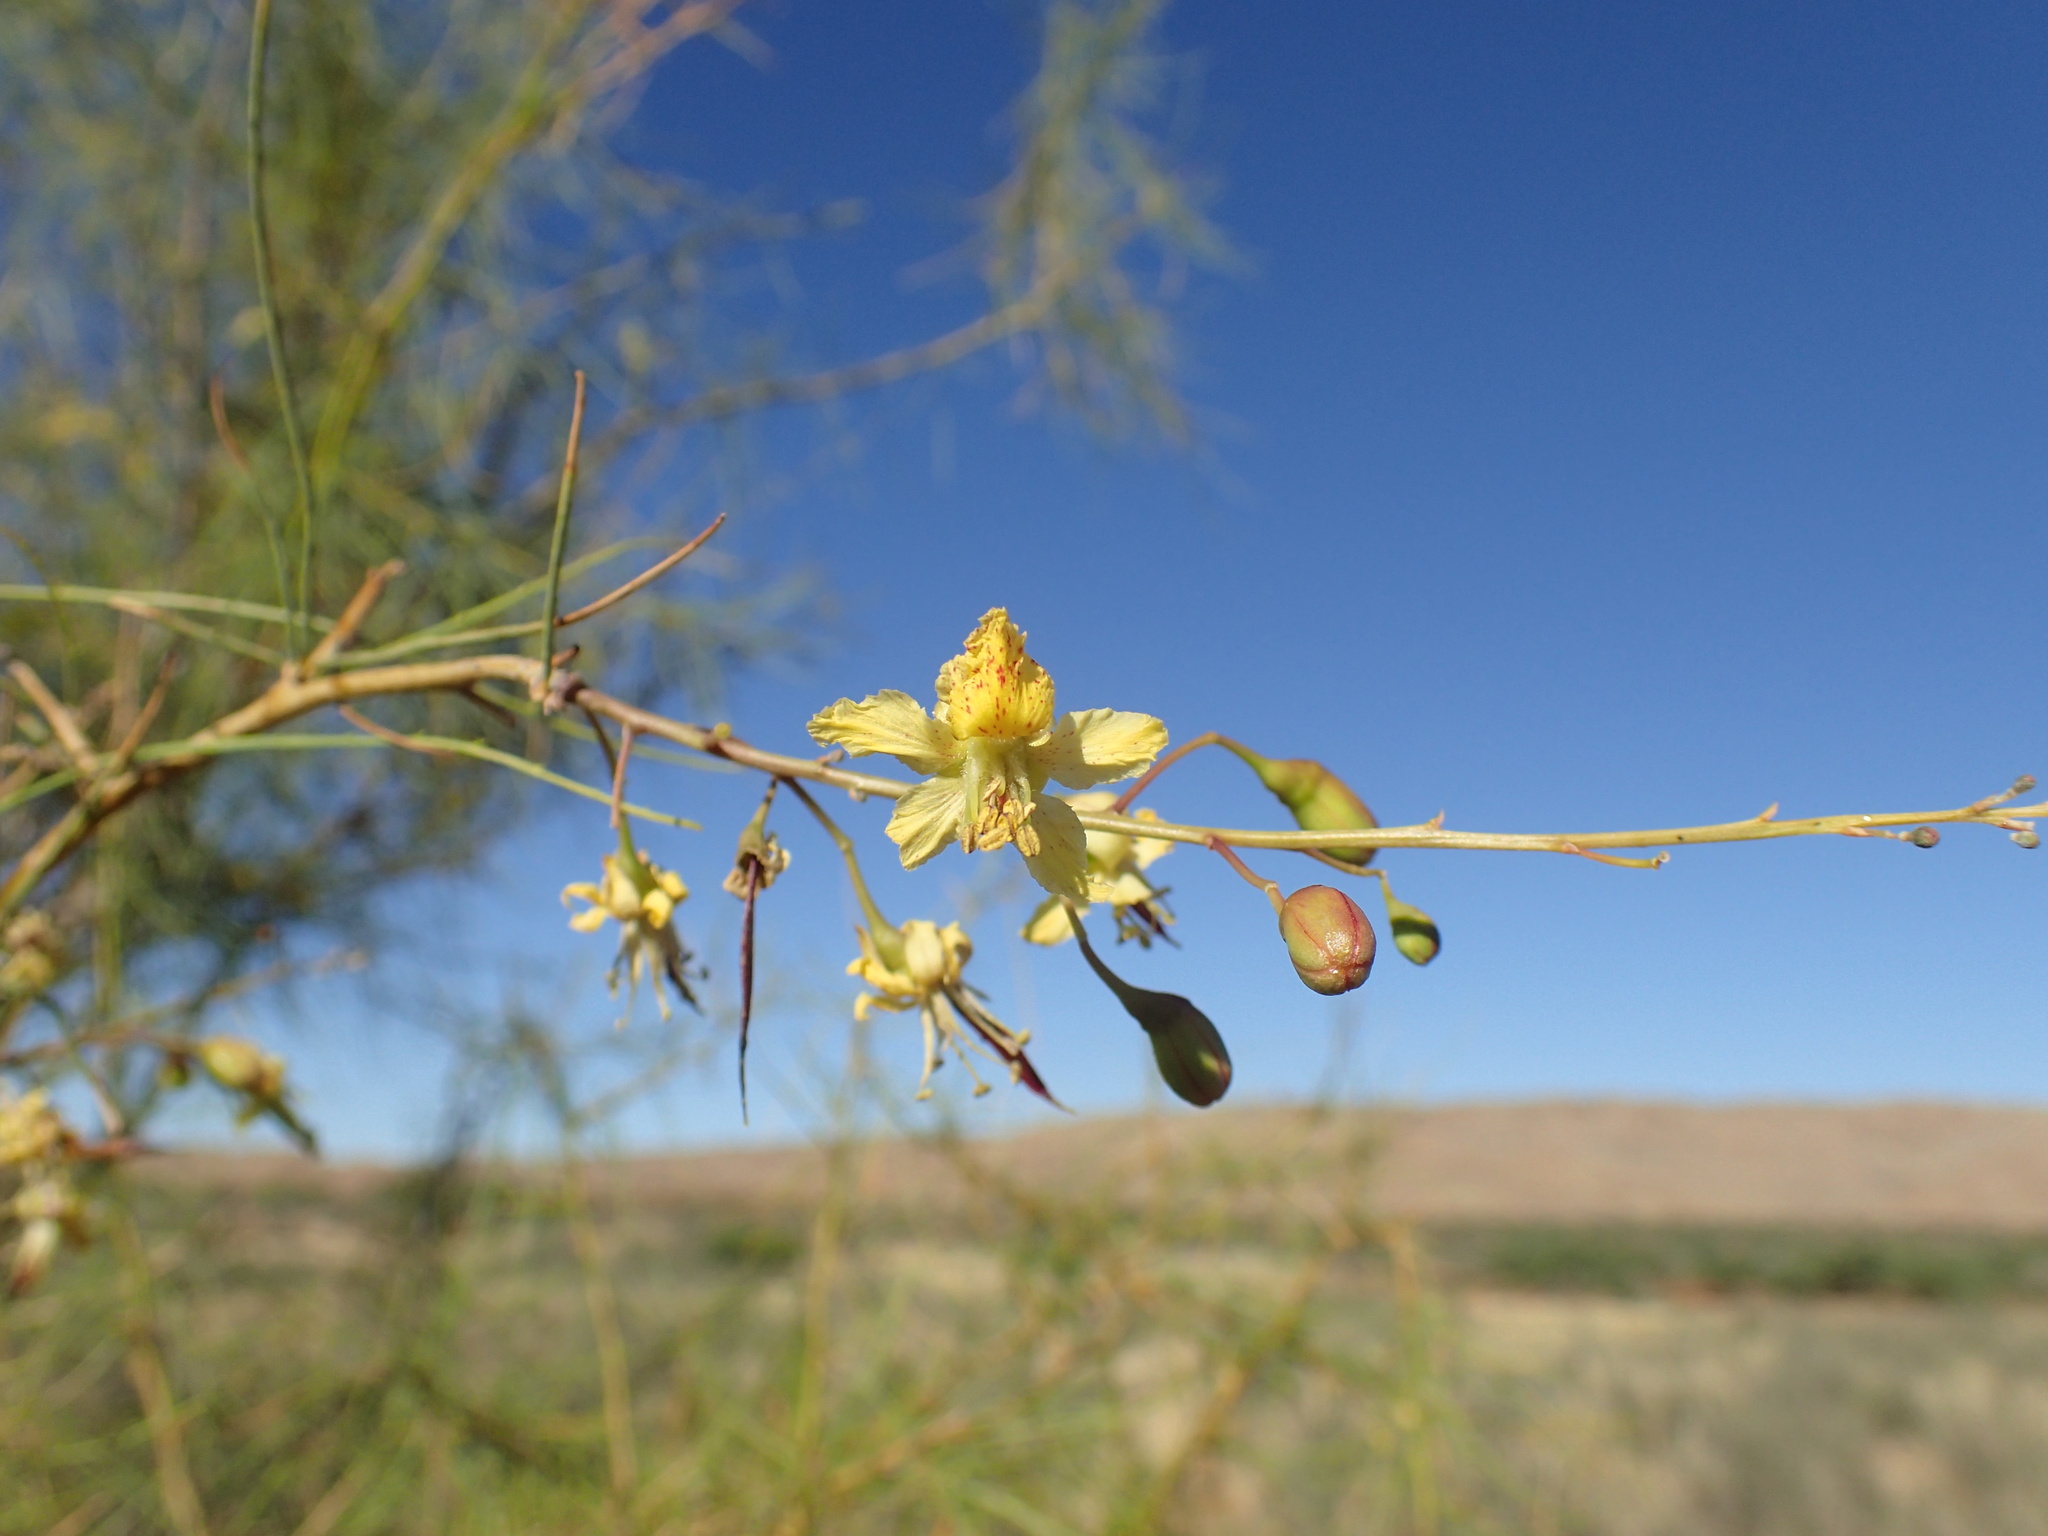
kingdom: Plantae
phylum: Tracheophyta
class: Magnoliopsida
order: Fabales
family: Fabaceae
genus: Parkinsonia
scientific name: Parkinsonia africana
